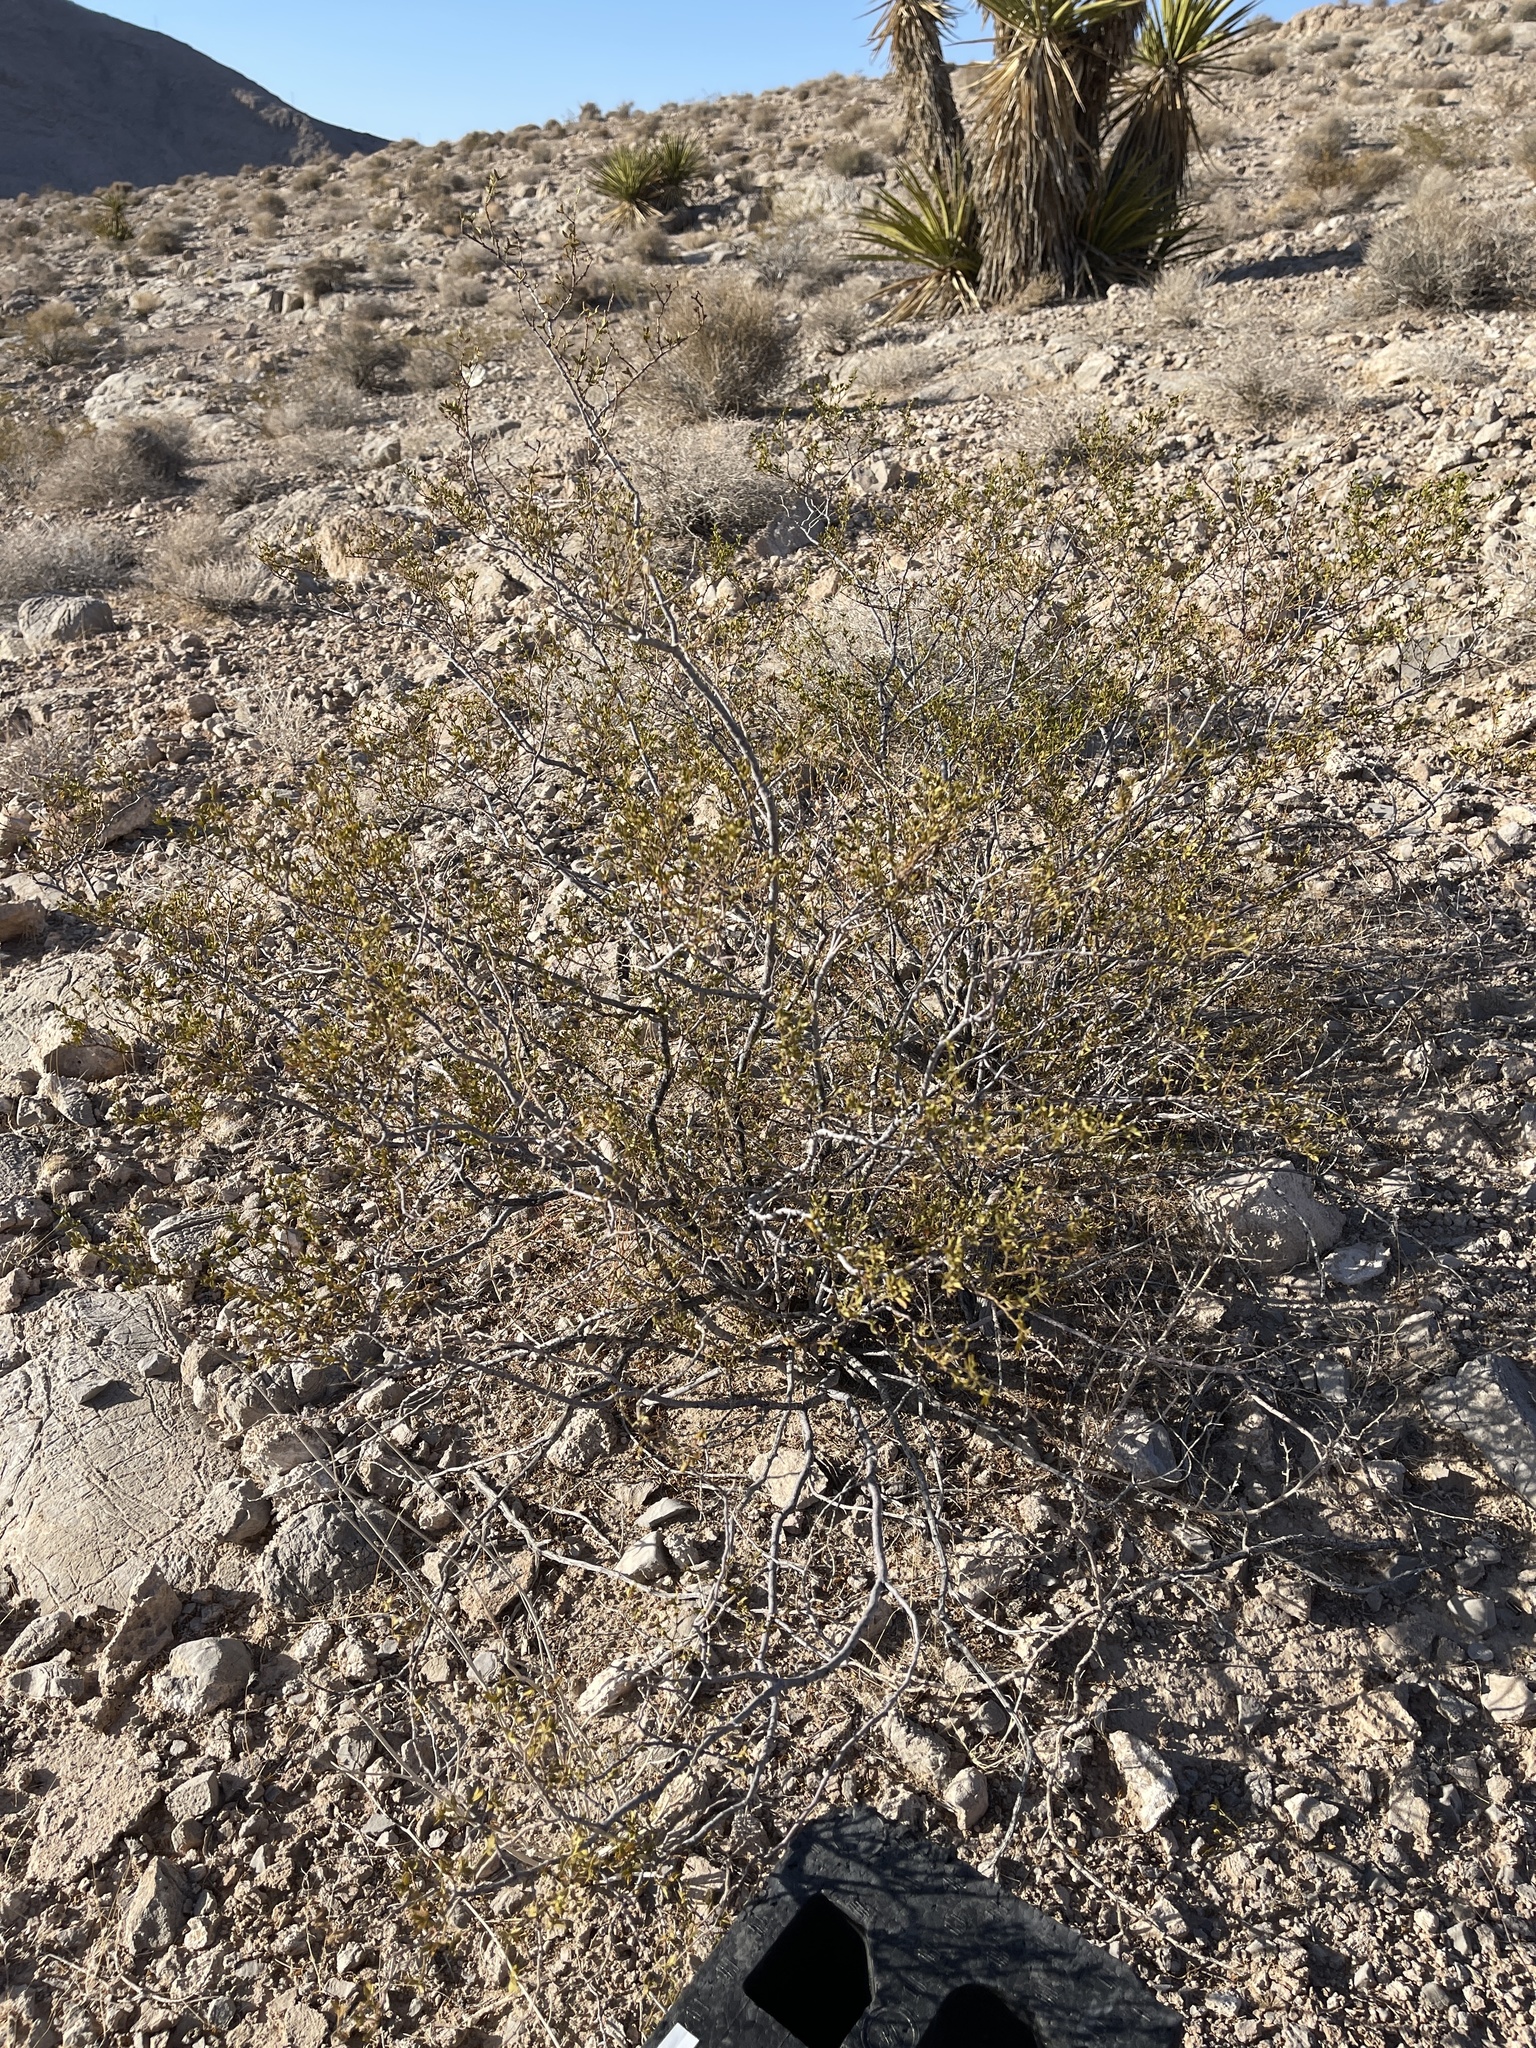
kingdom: Plantae
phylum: Tracheophyta
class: Magnoliopsida
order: Zygophyllales
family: Zygophyllaceae
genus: Larrea
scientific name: Larrea tridentata
